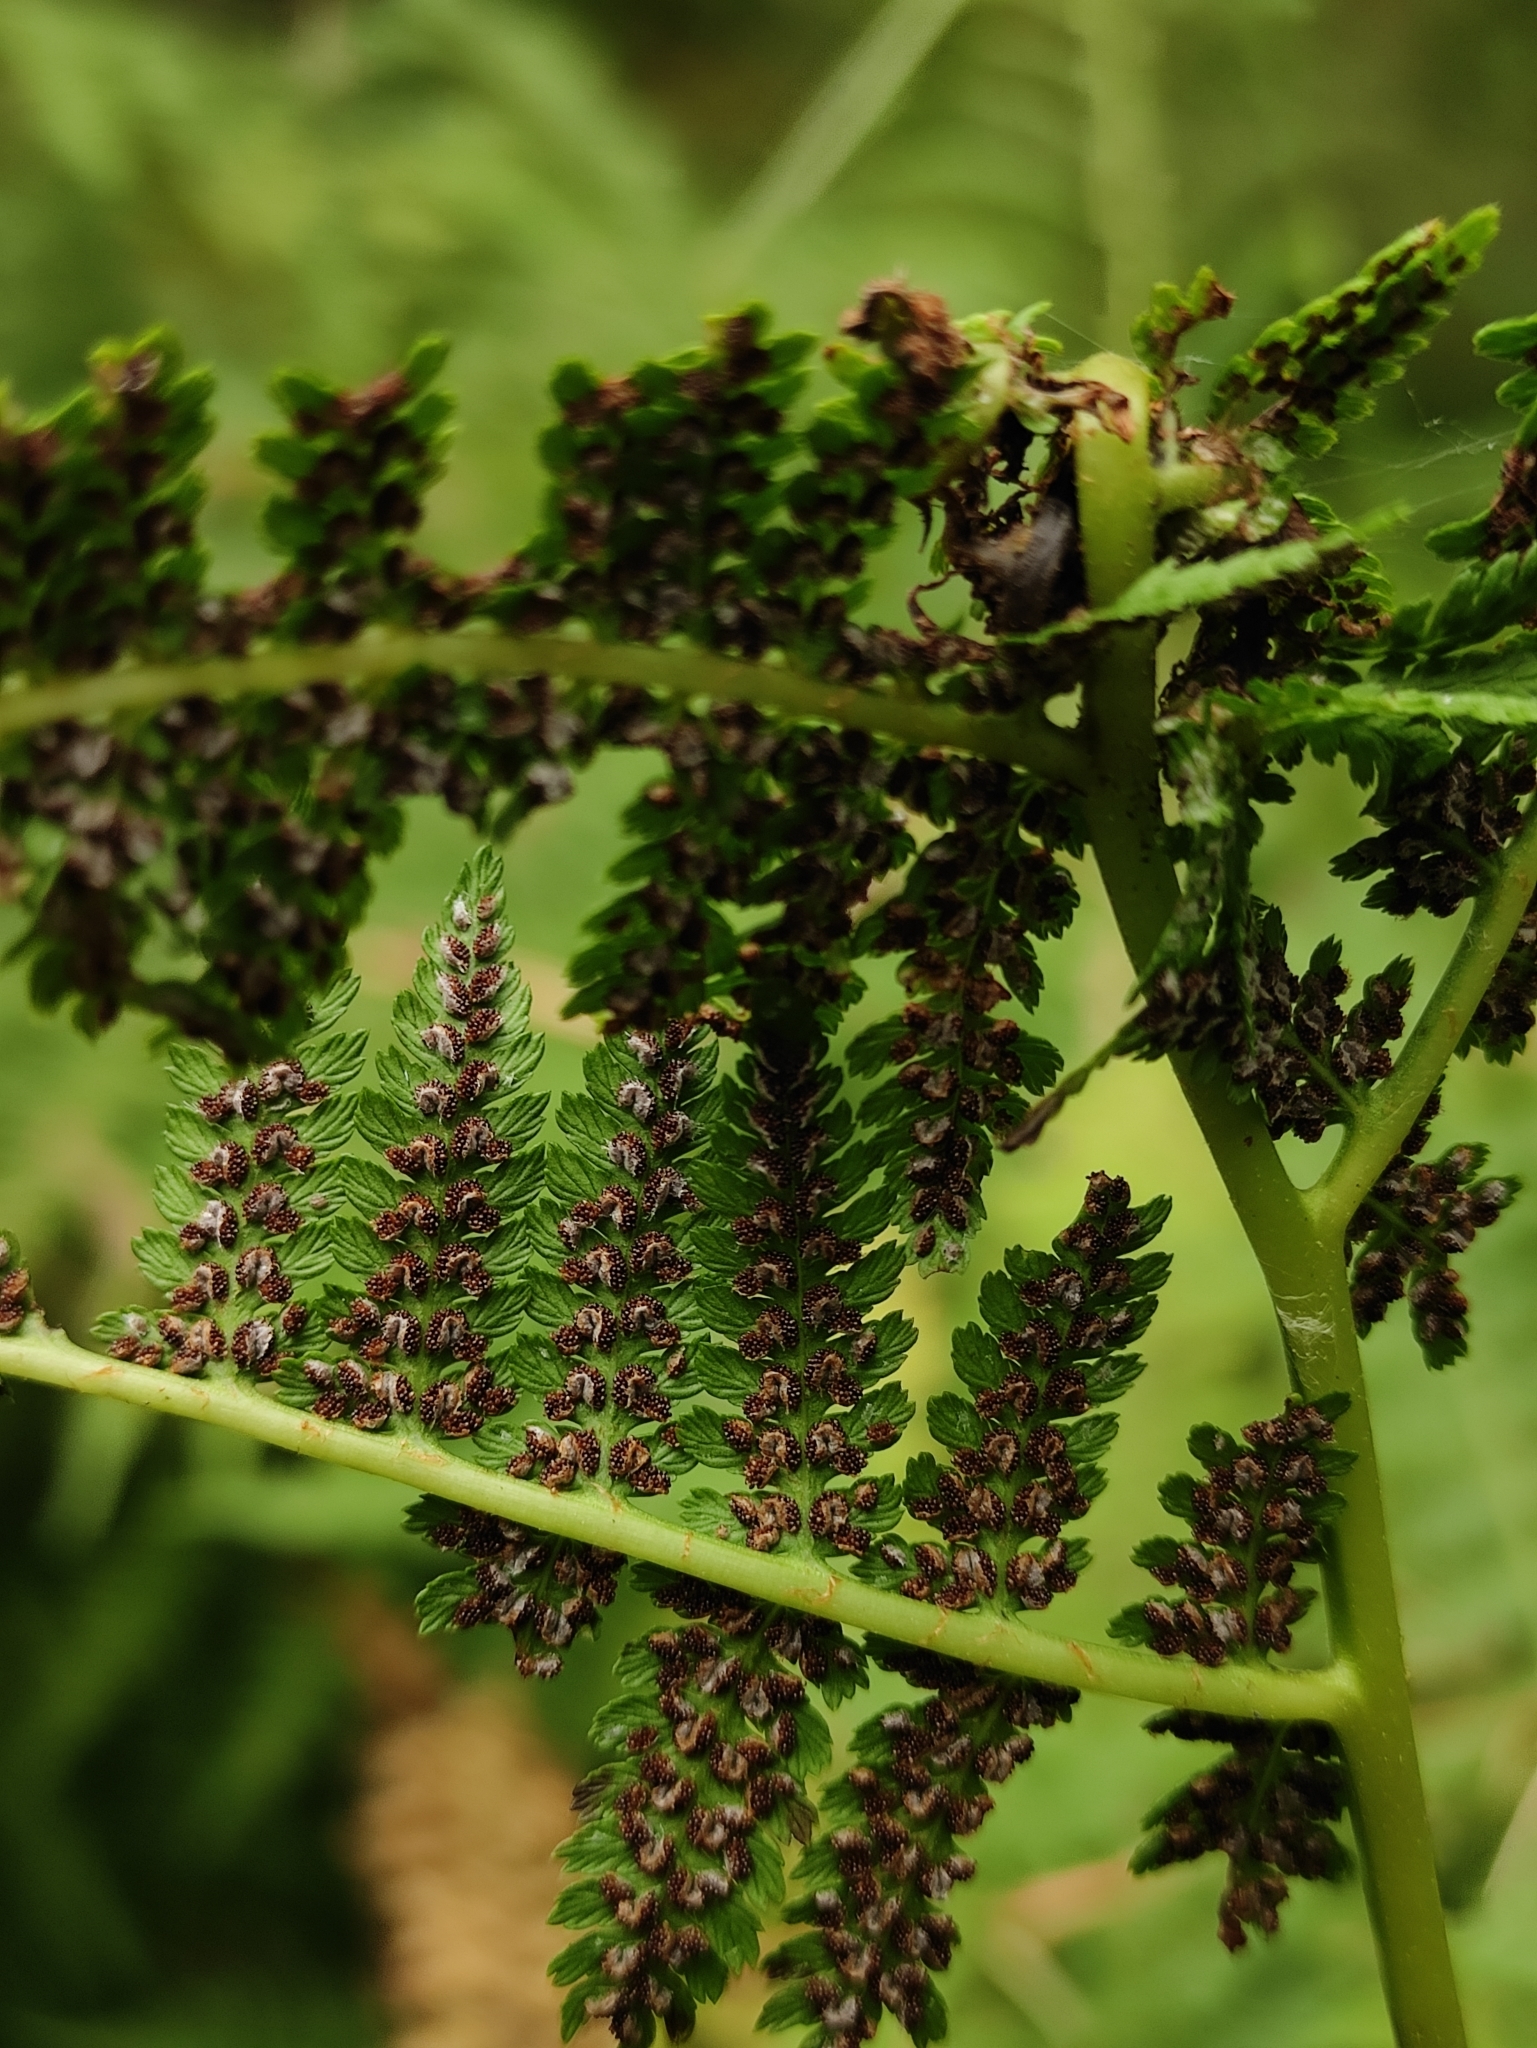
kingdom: Plantae
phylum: Tracheophyta
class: Polypodiopsida
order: Polypodiales
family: Athyriaceae
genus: Athyrium
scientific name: Athyrium filix-femina
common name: Lady fern
